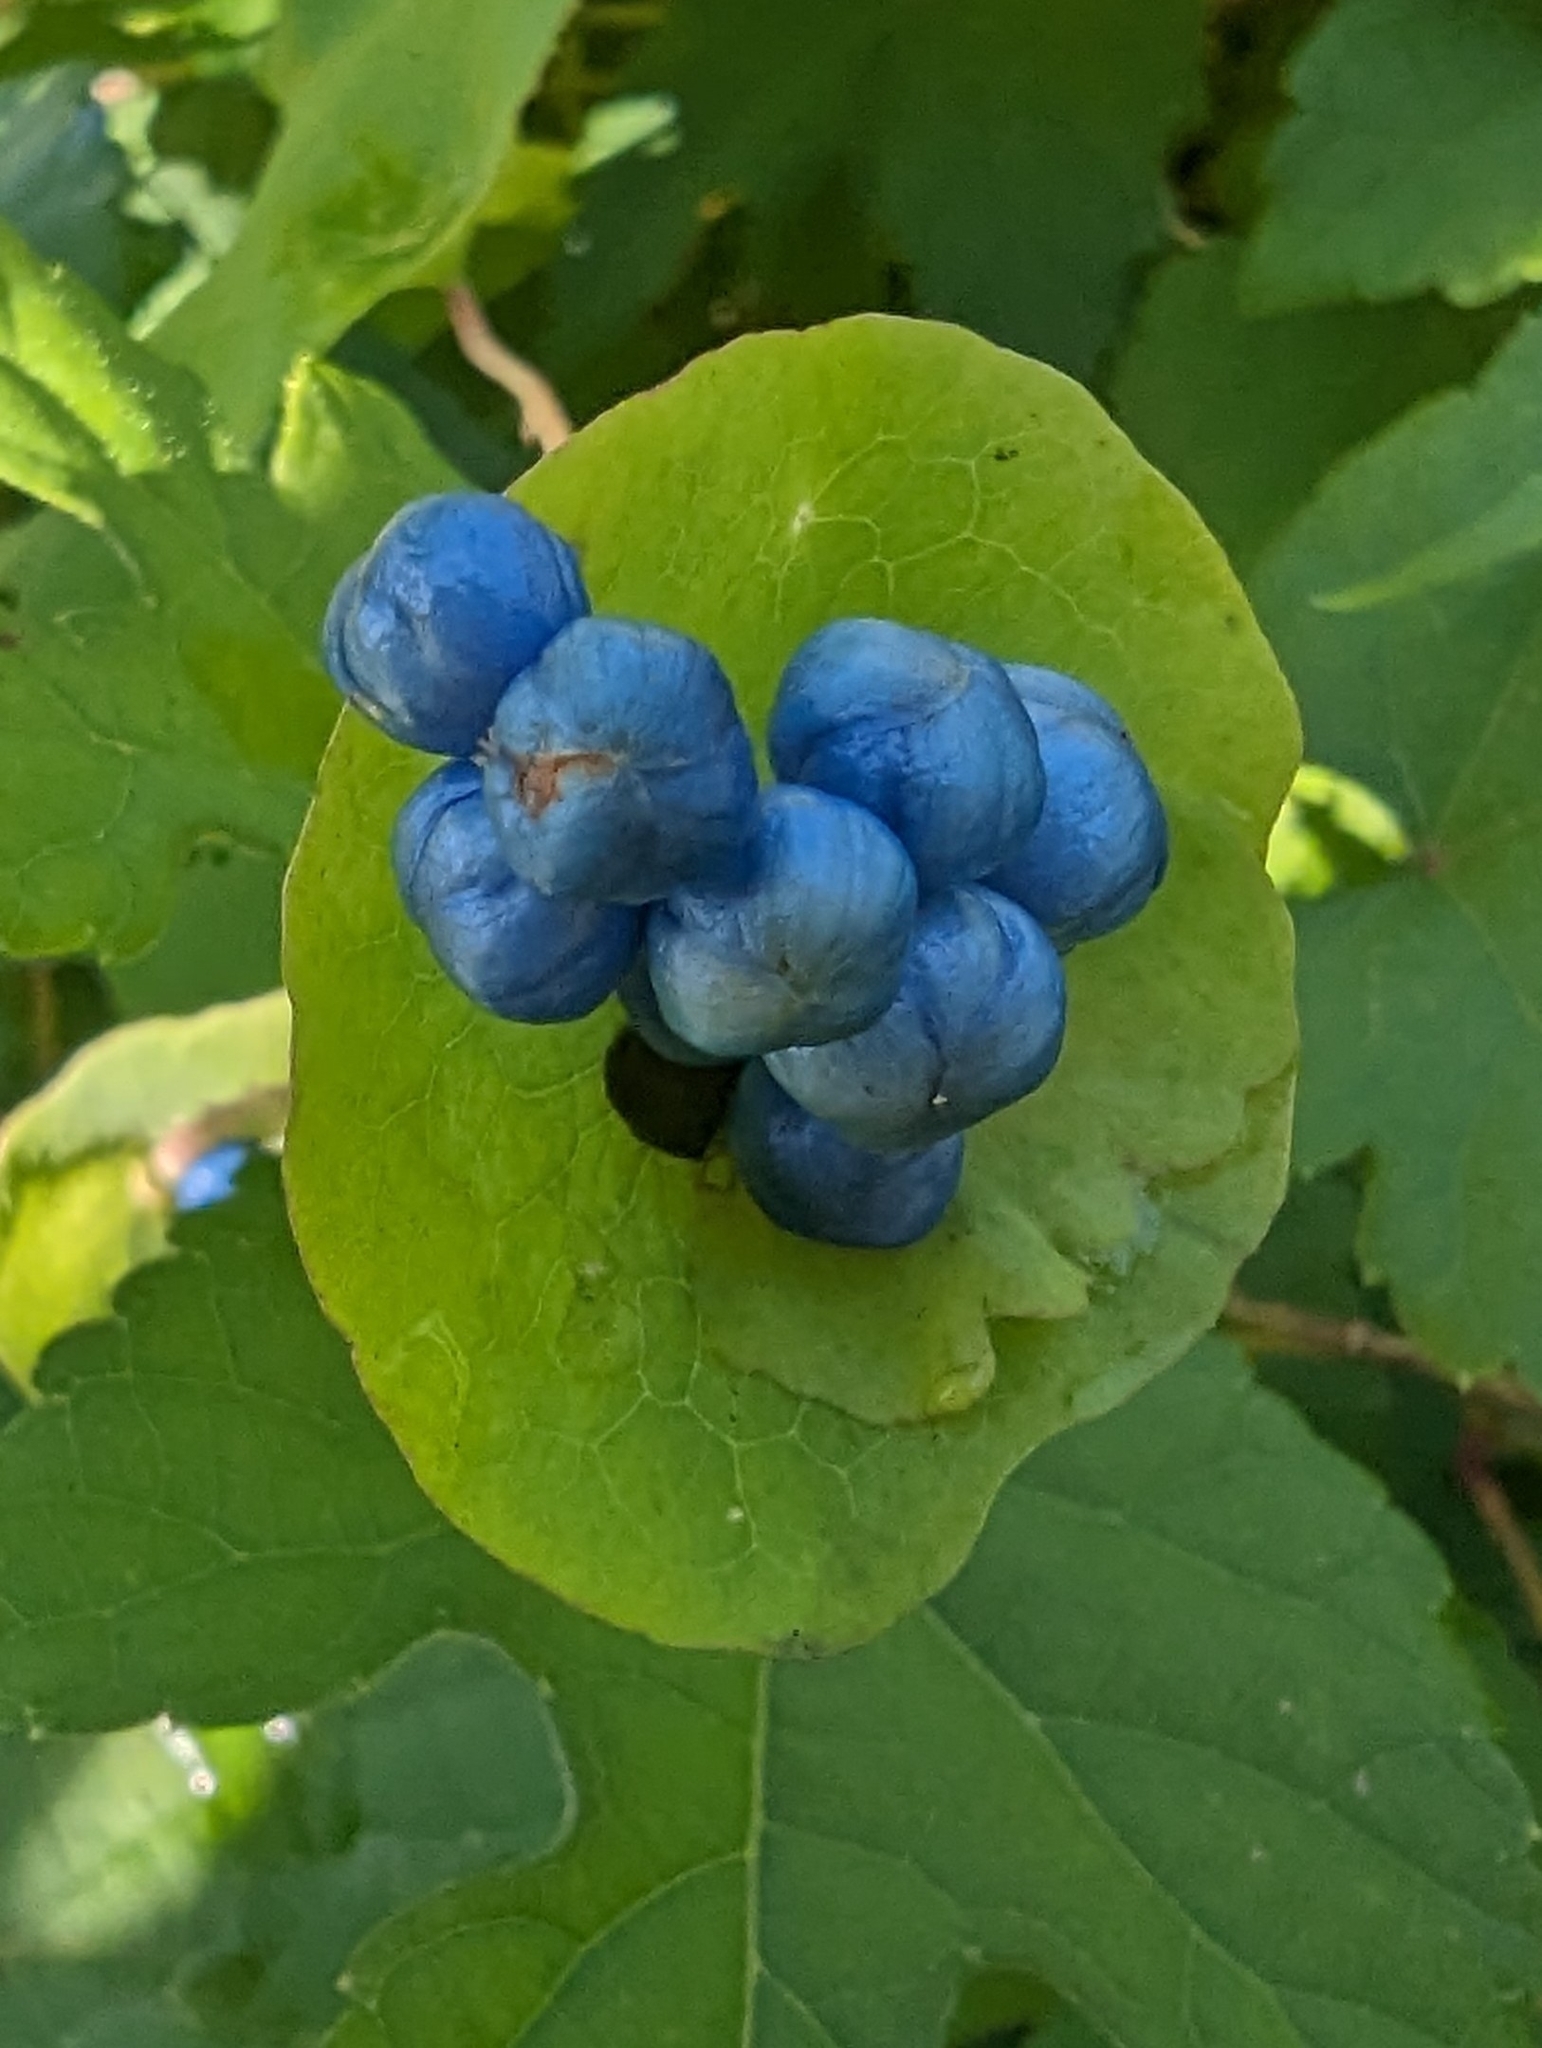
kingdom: Plantae
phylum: Tracheophyta
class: Magnoliopsida
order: Caryophyllales
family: Polygonaceae
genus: Persicaria
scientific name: Persicaria perfoliata
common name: Asiatic tearthumb
